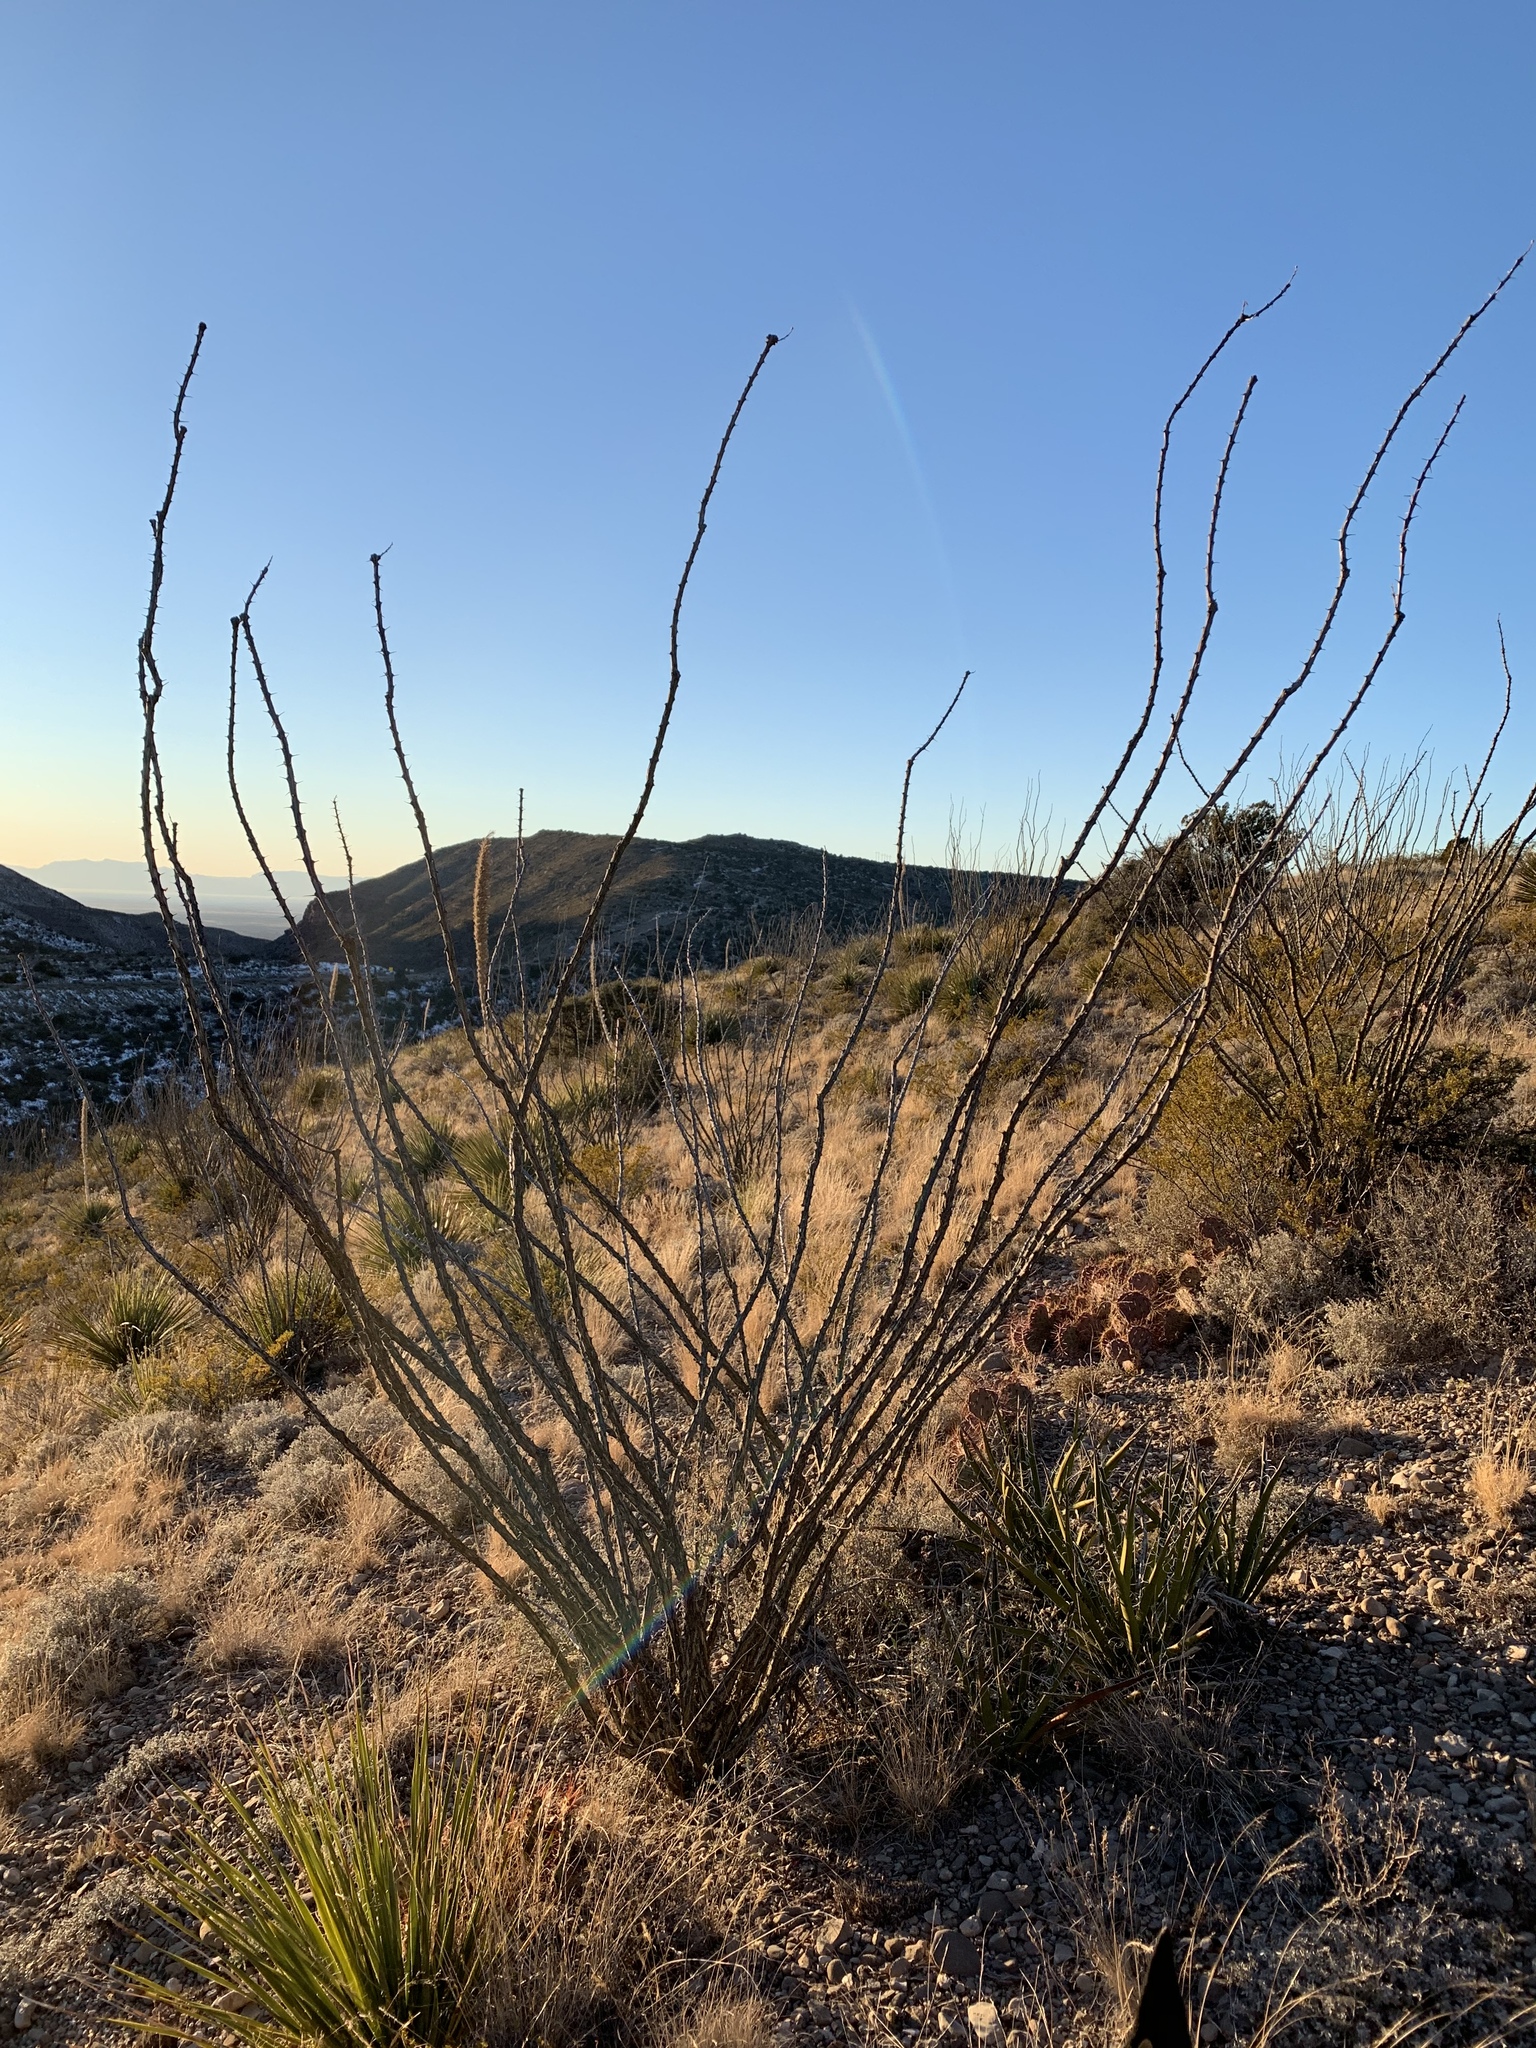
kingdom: Plantae
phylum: Tracheophyta
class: Magnoliopsida
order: Ericales
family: Fouquieriaceae
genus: Fouquieria
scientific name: Fouquieria splendens
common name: Vine-cactus
